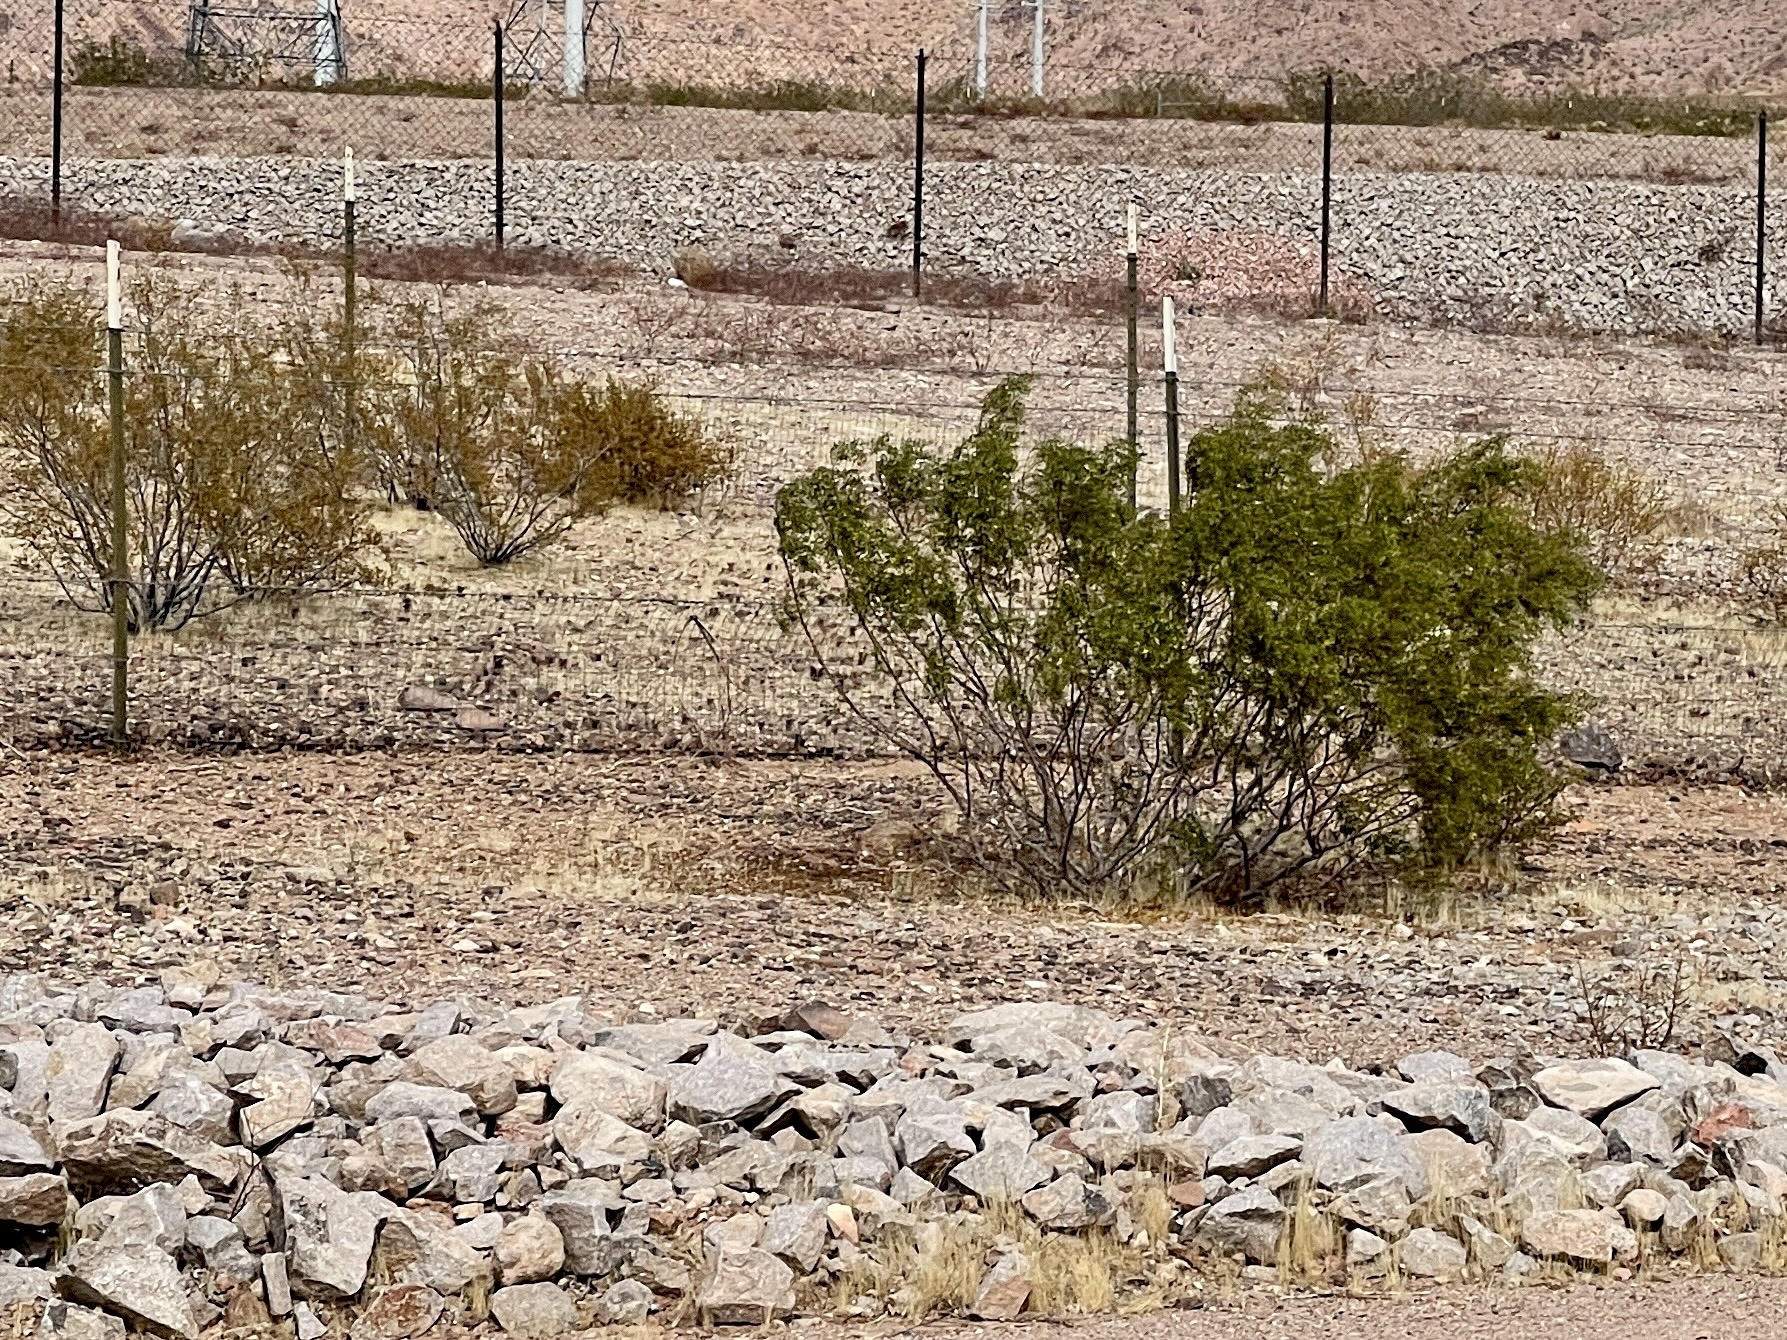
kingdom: Plantae
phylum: Tracheophyta
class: Magnoliopsida
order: Zygophyllales
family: Zygophyllaceae
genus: Larrea
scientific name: Larrea tridentata
